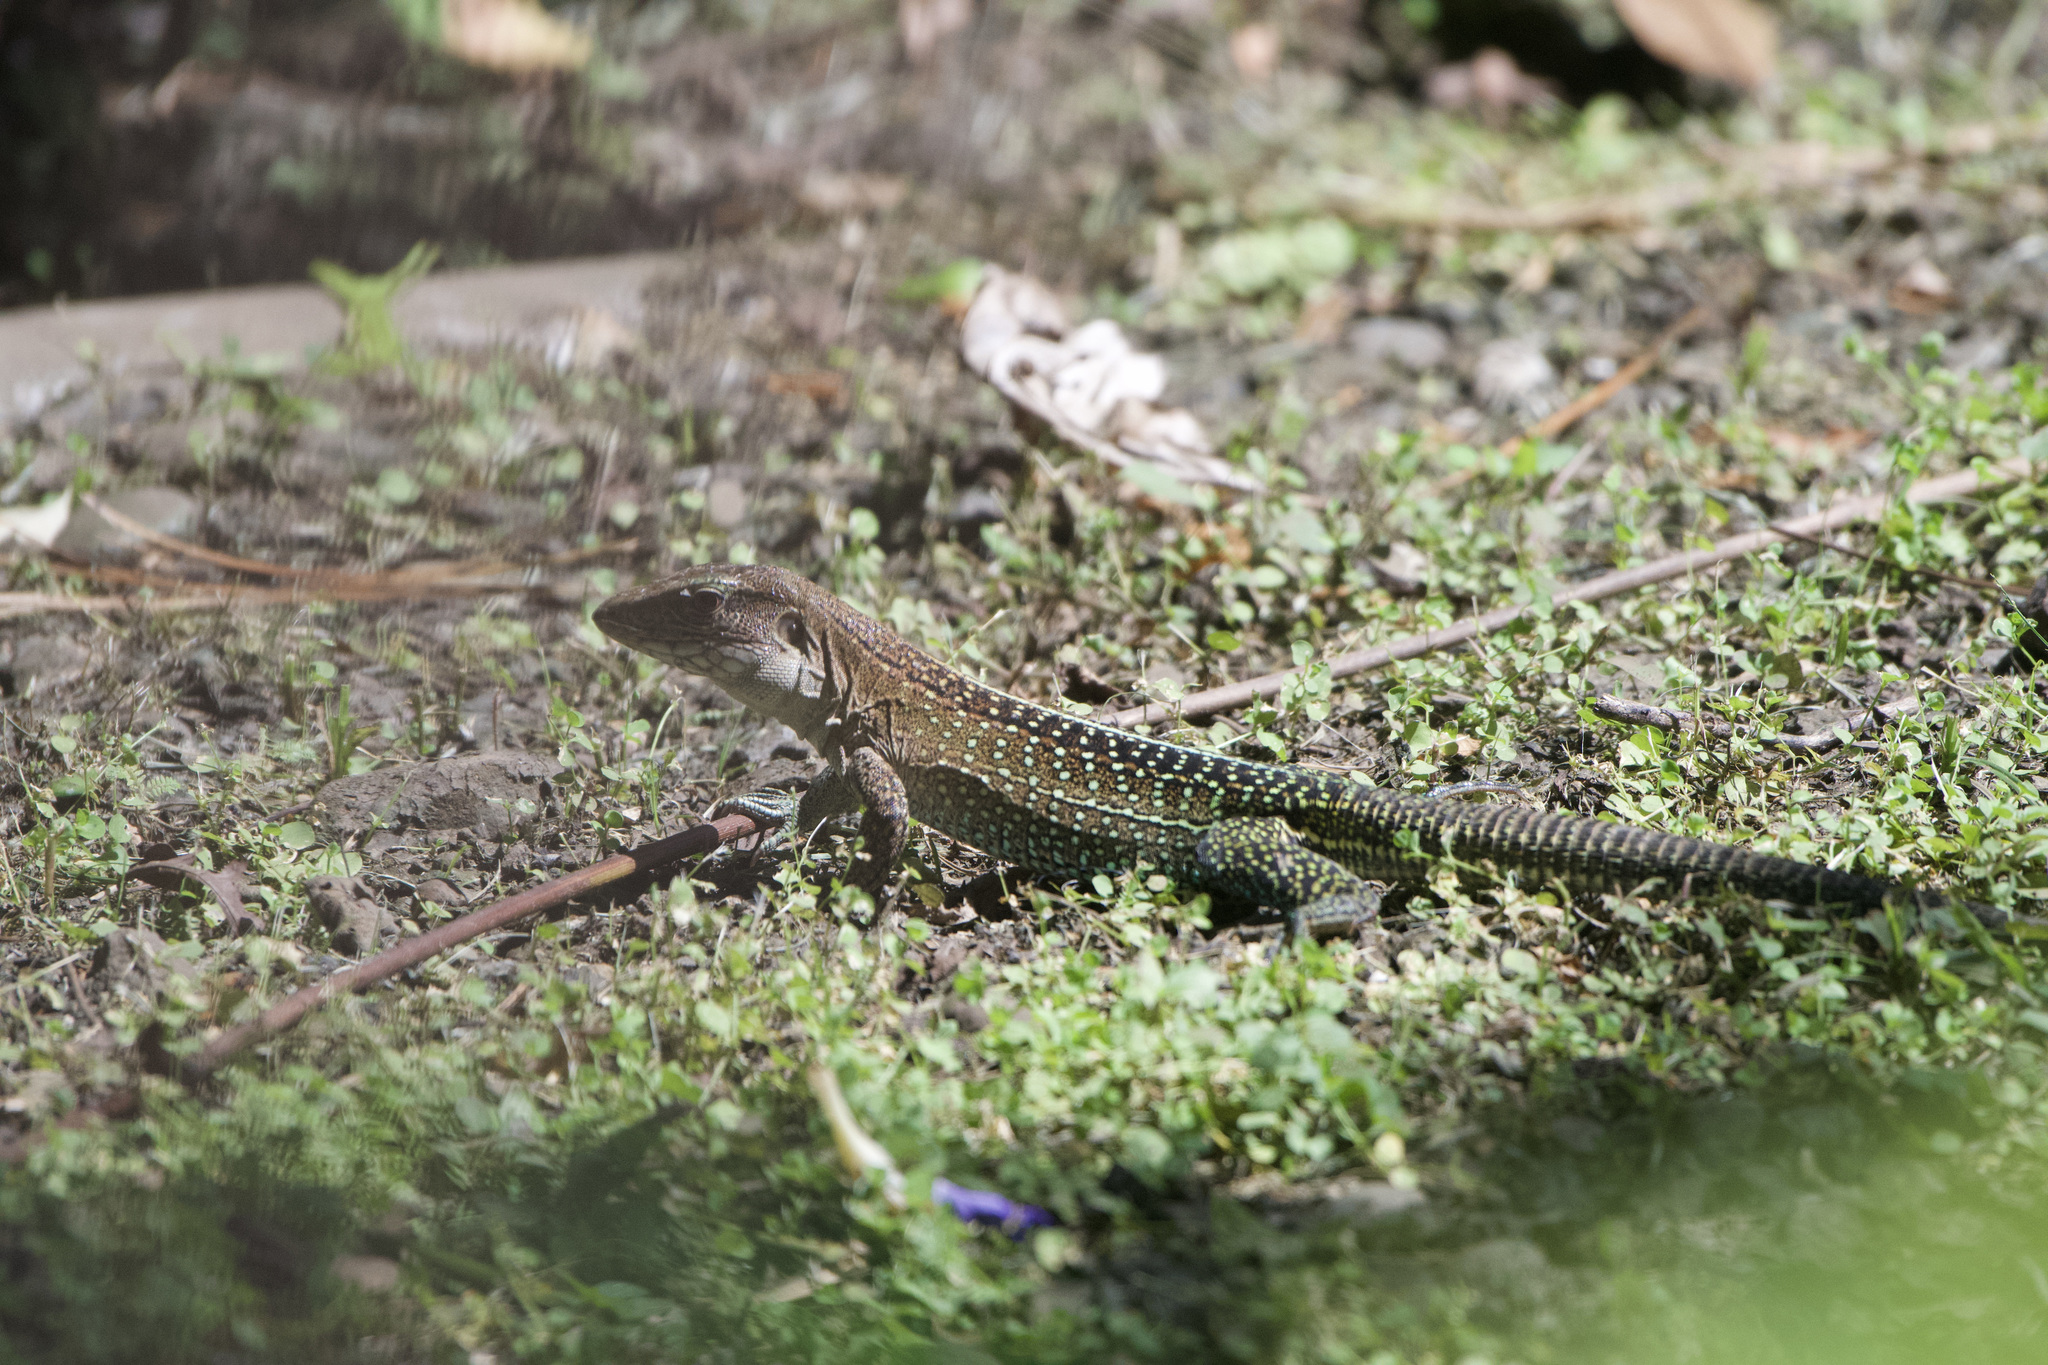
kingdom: Animalia
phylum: Chordata
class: Squamata
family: Teiidae
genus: Ameiva
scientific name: Ameiva praesignis
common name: Giant ameiva
